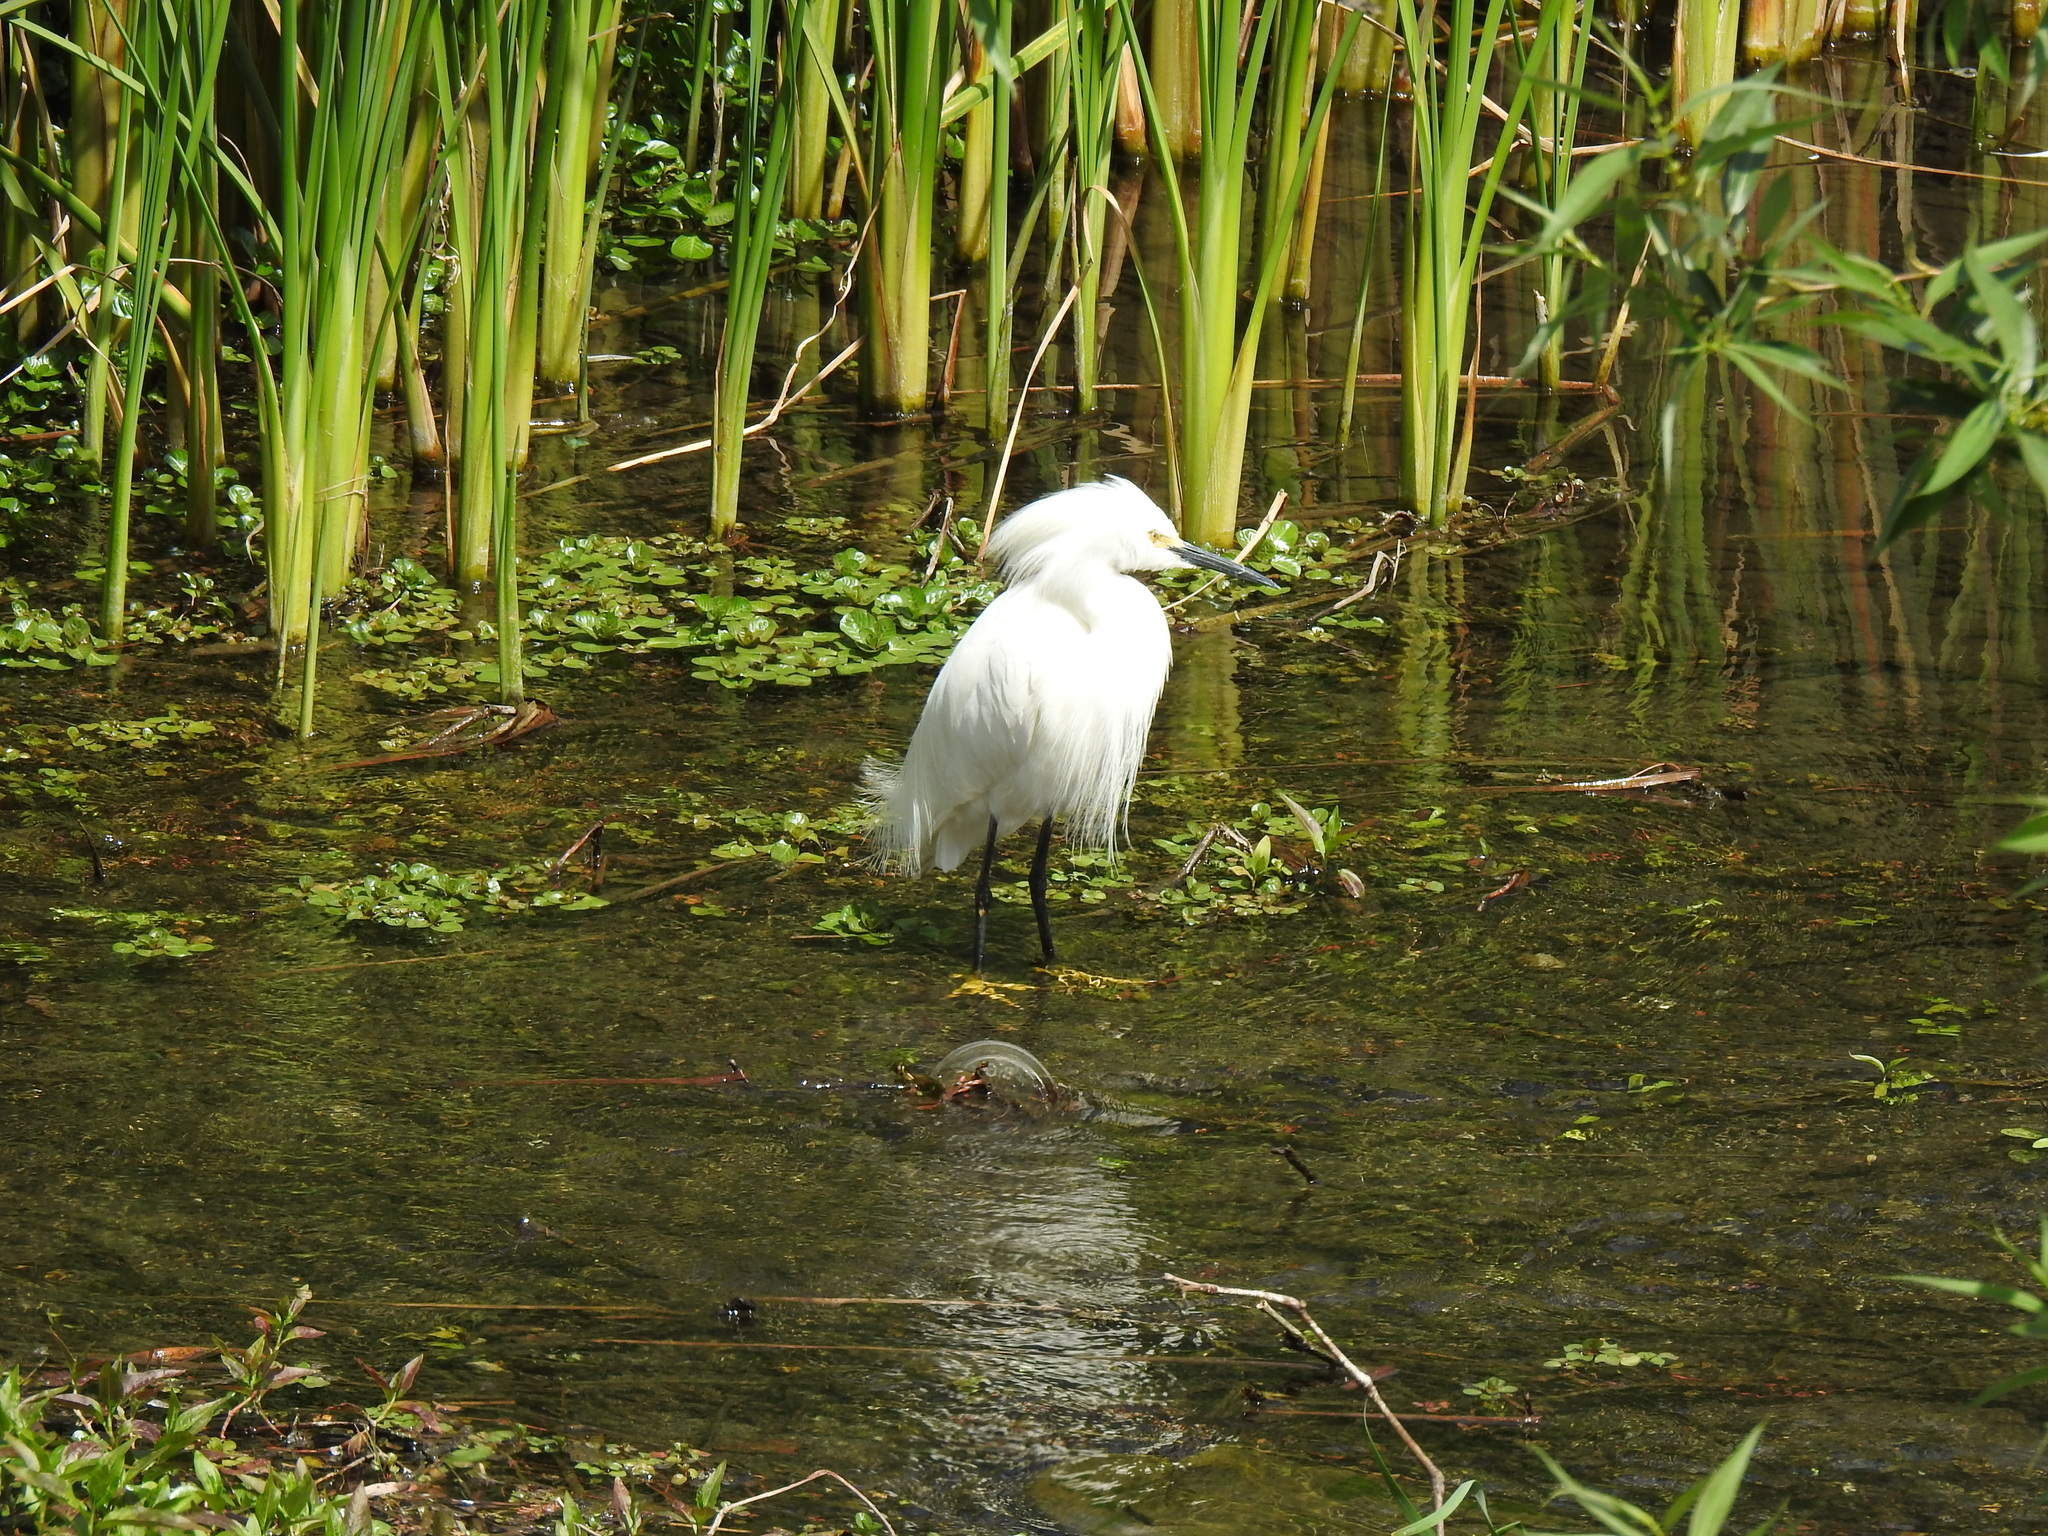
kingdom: Animalia
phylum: Chordata
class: Aves
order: Pelecaniformes
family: Ardeidae
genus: Egretta
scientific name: Egretta thula
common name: Snowy egret
